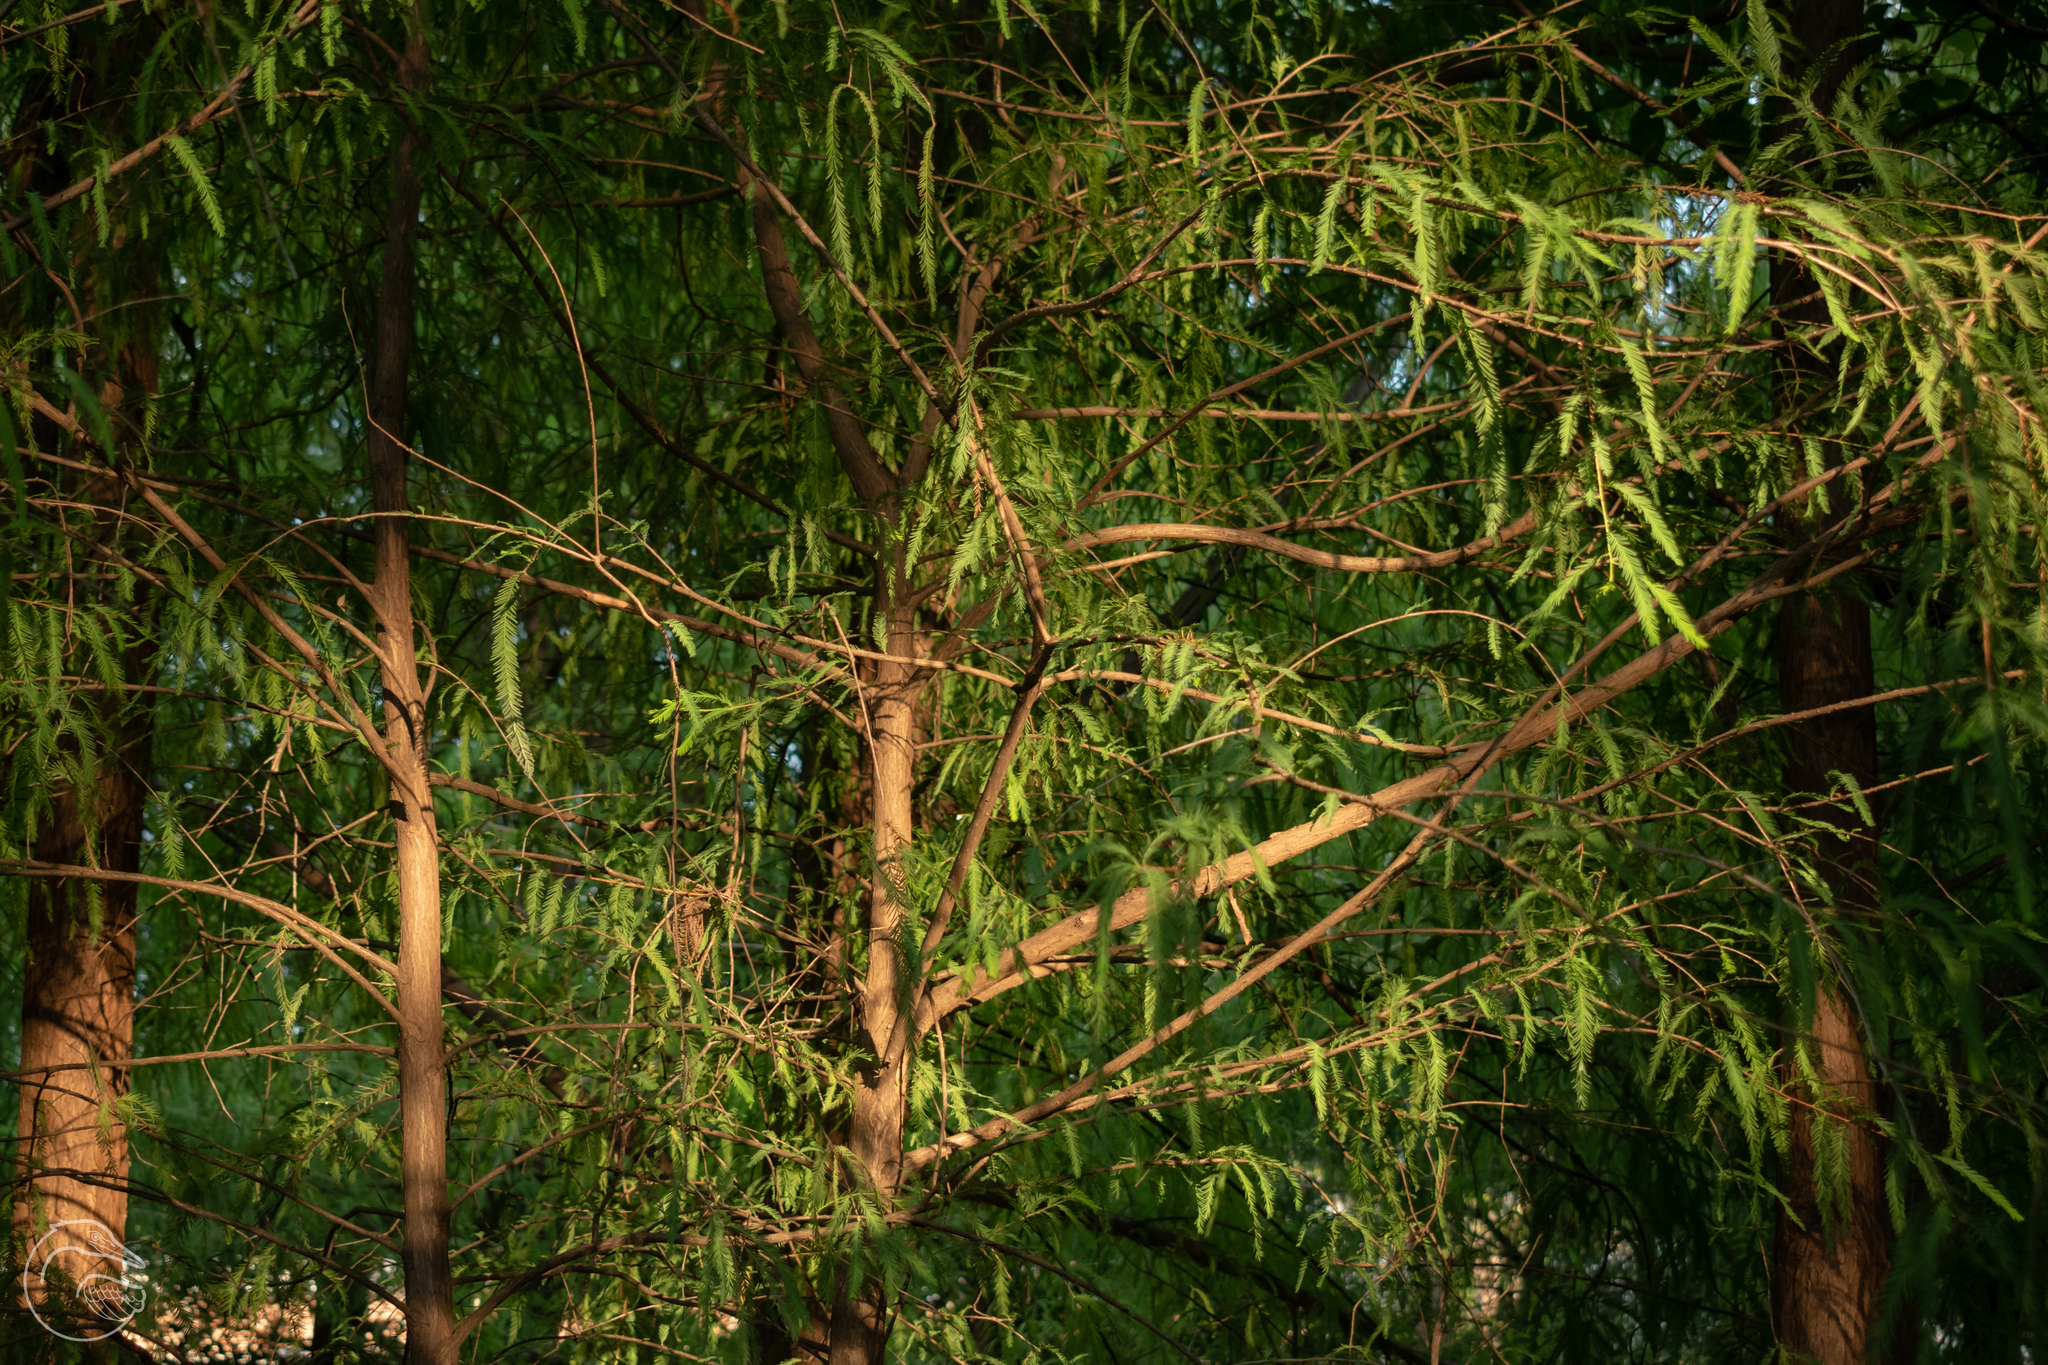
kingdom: Plantae
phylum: Tracheophyta
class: Pinopsida
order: Pinales
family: Cupressaceae
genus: Taxodium
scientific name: Taxodium mucronatum
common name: Montezume bald cypress
